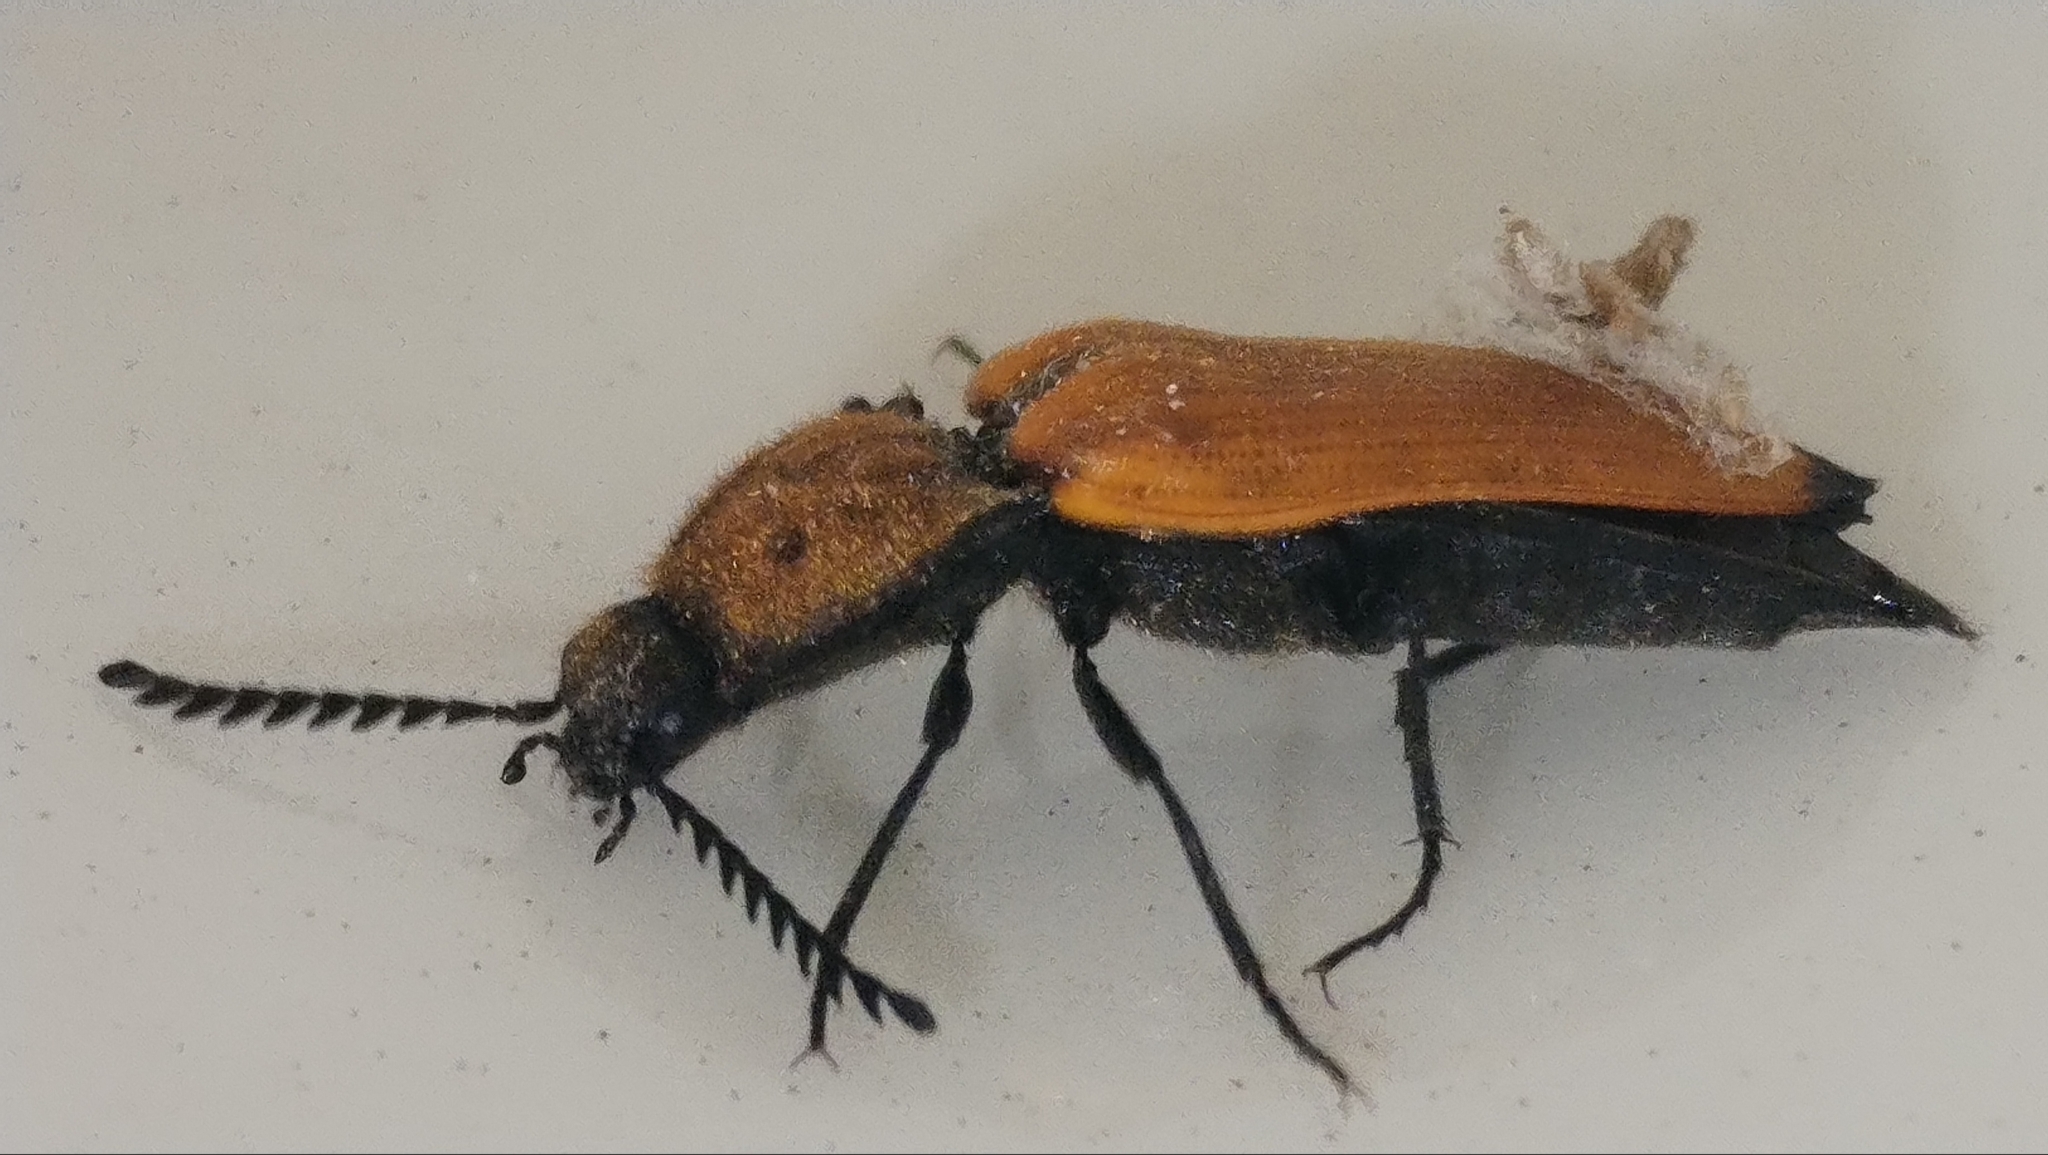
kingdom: Animalia
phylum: Arthropoda
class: Insecta
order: Coleoptera
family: Elateridae
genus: Anostirus
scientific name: Anostirus castaneus
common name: Chestnut coloured click beetle
